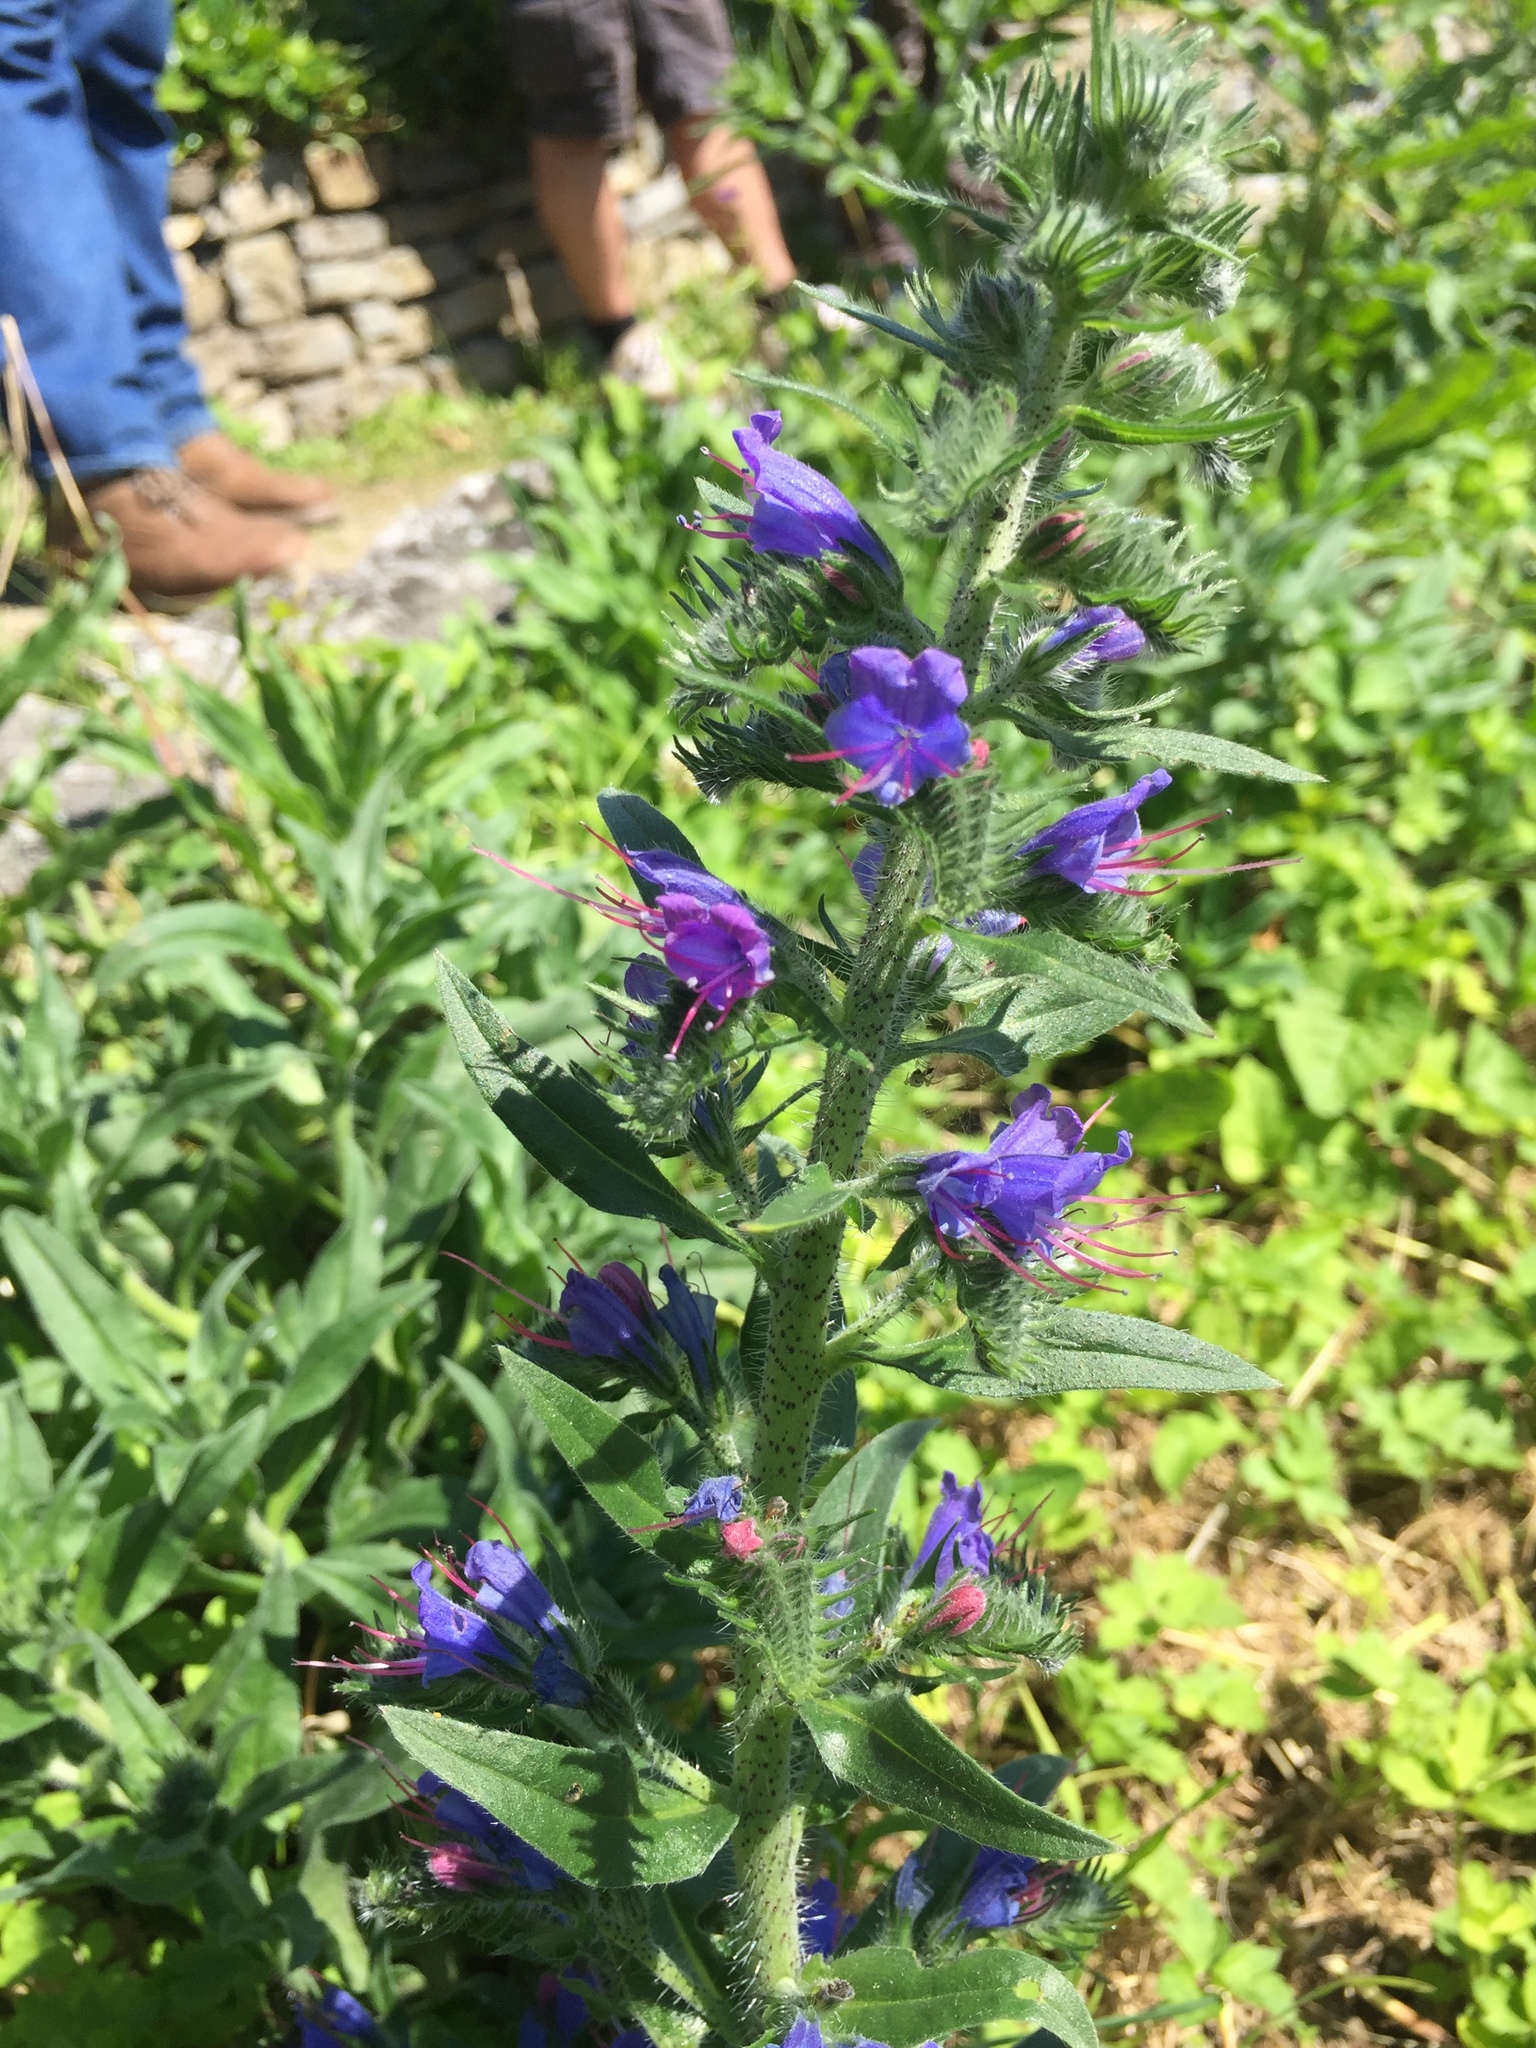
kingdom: Plantae
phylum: Tracheophyta
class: Magnoliopsida
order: Boraginales
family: Boraginaceae
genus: Echium
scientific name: Echium vulgare
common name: Common viper's bugloss
